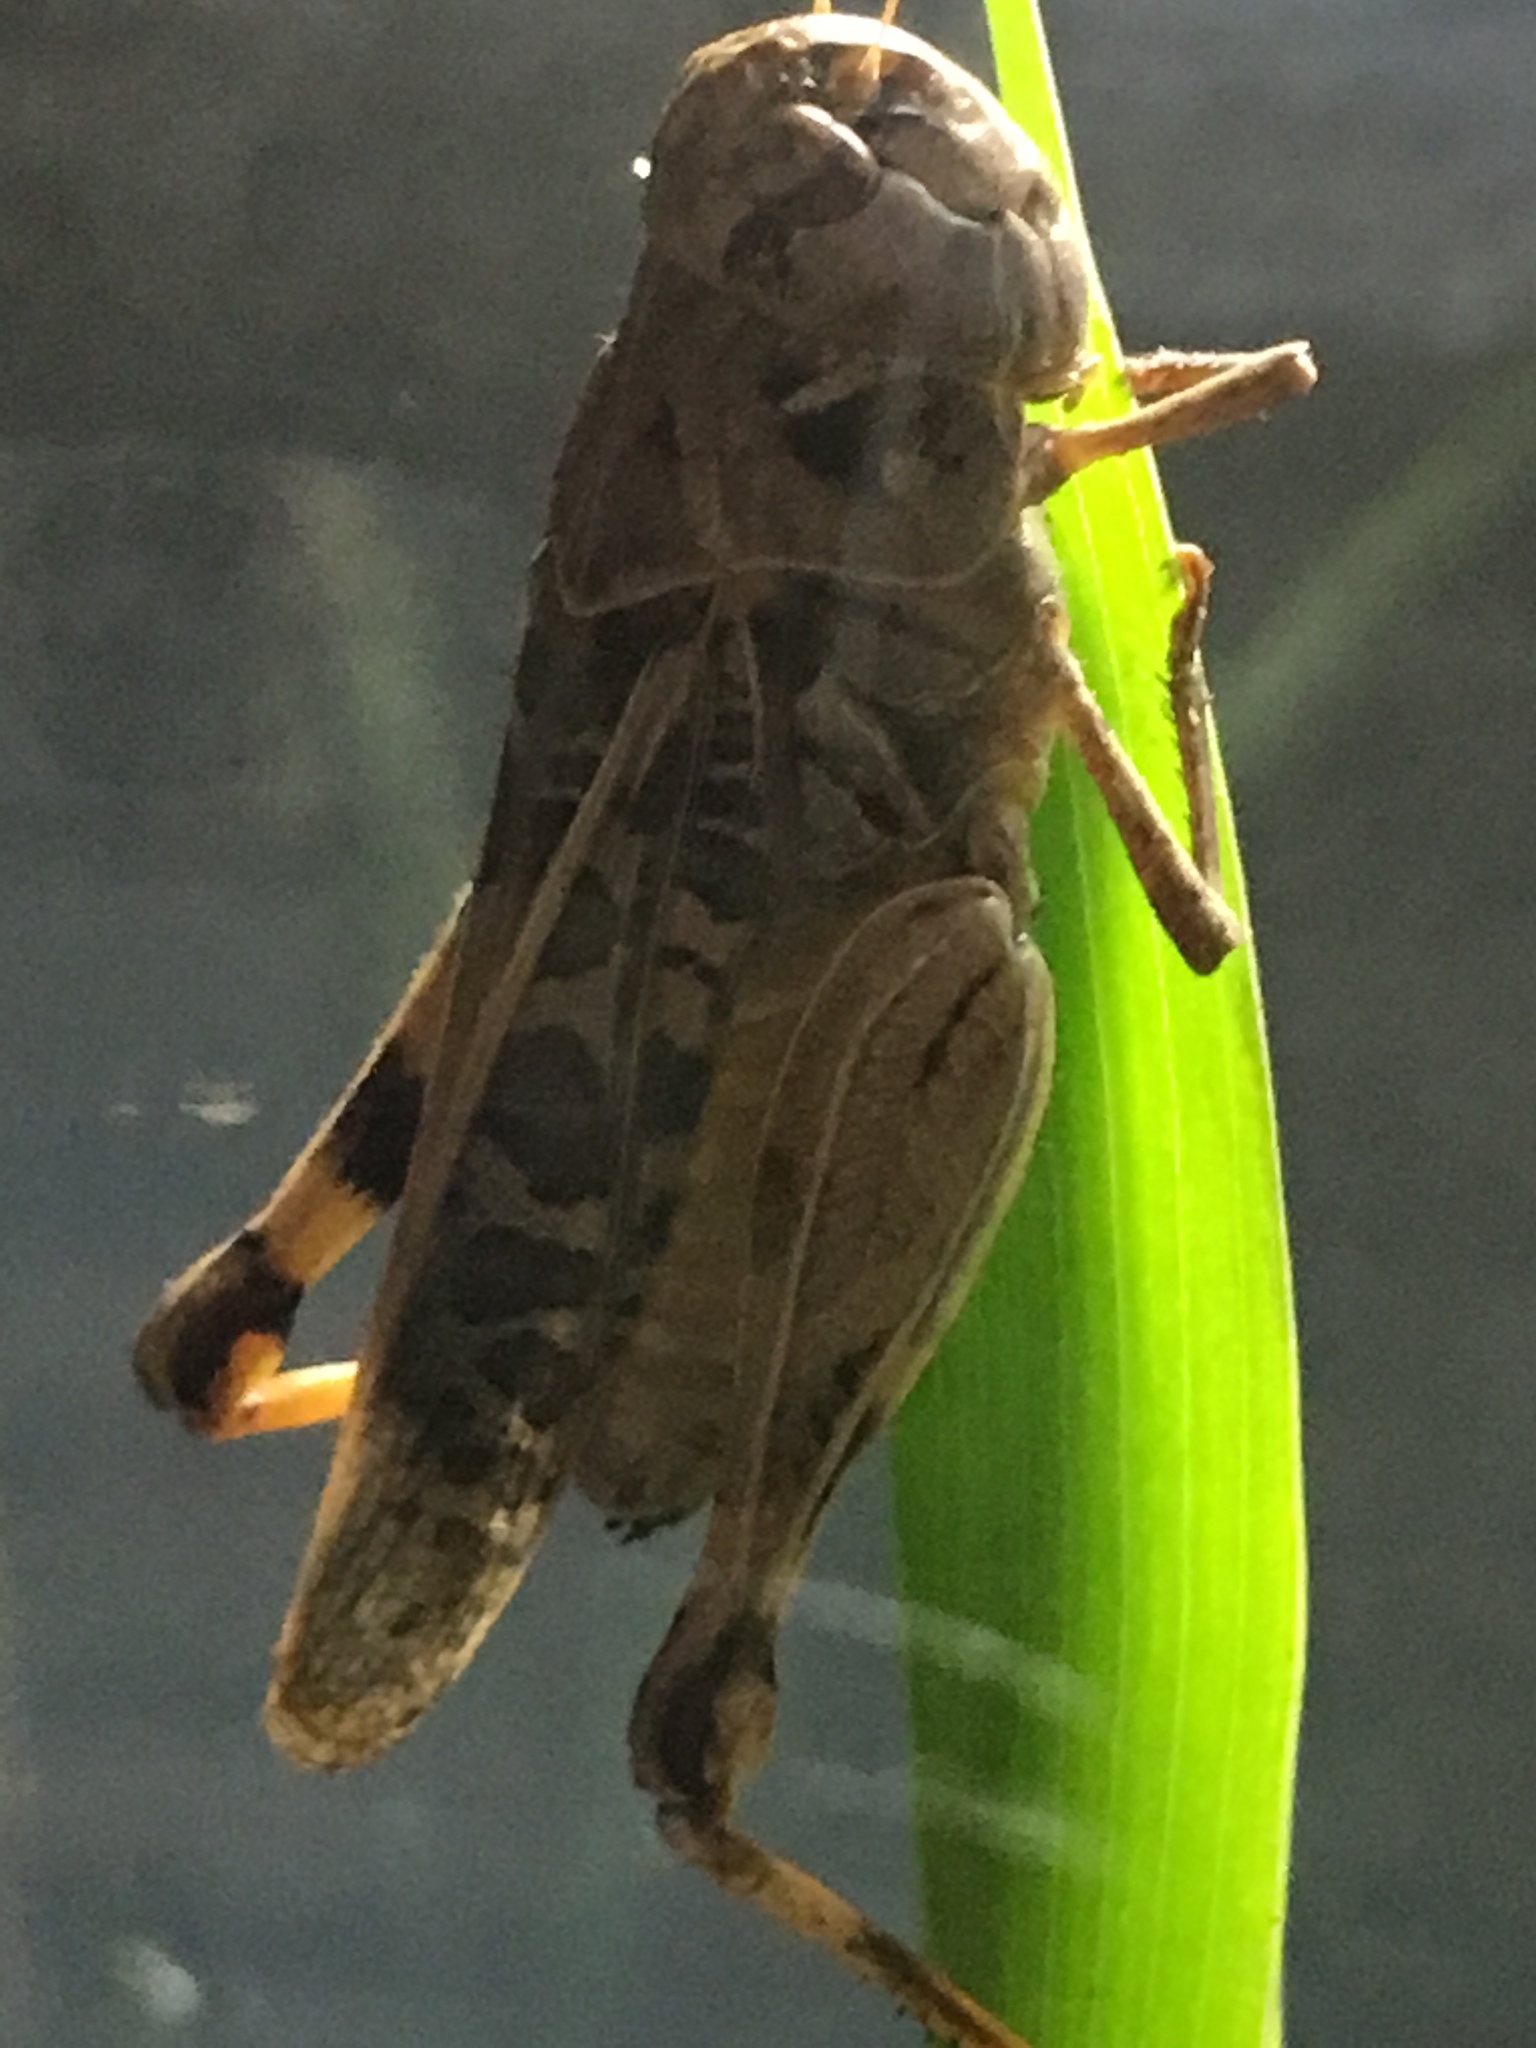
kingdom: Animalia
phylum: Arthropoda
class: Insecta
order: Orthoptera
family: Acrididae
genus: Hippiscus
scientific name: Hippiscus ocelote
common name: Wrinkled grasshopper
